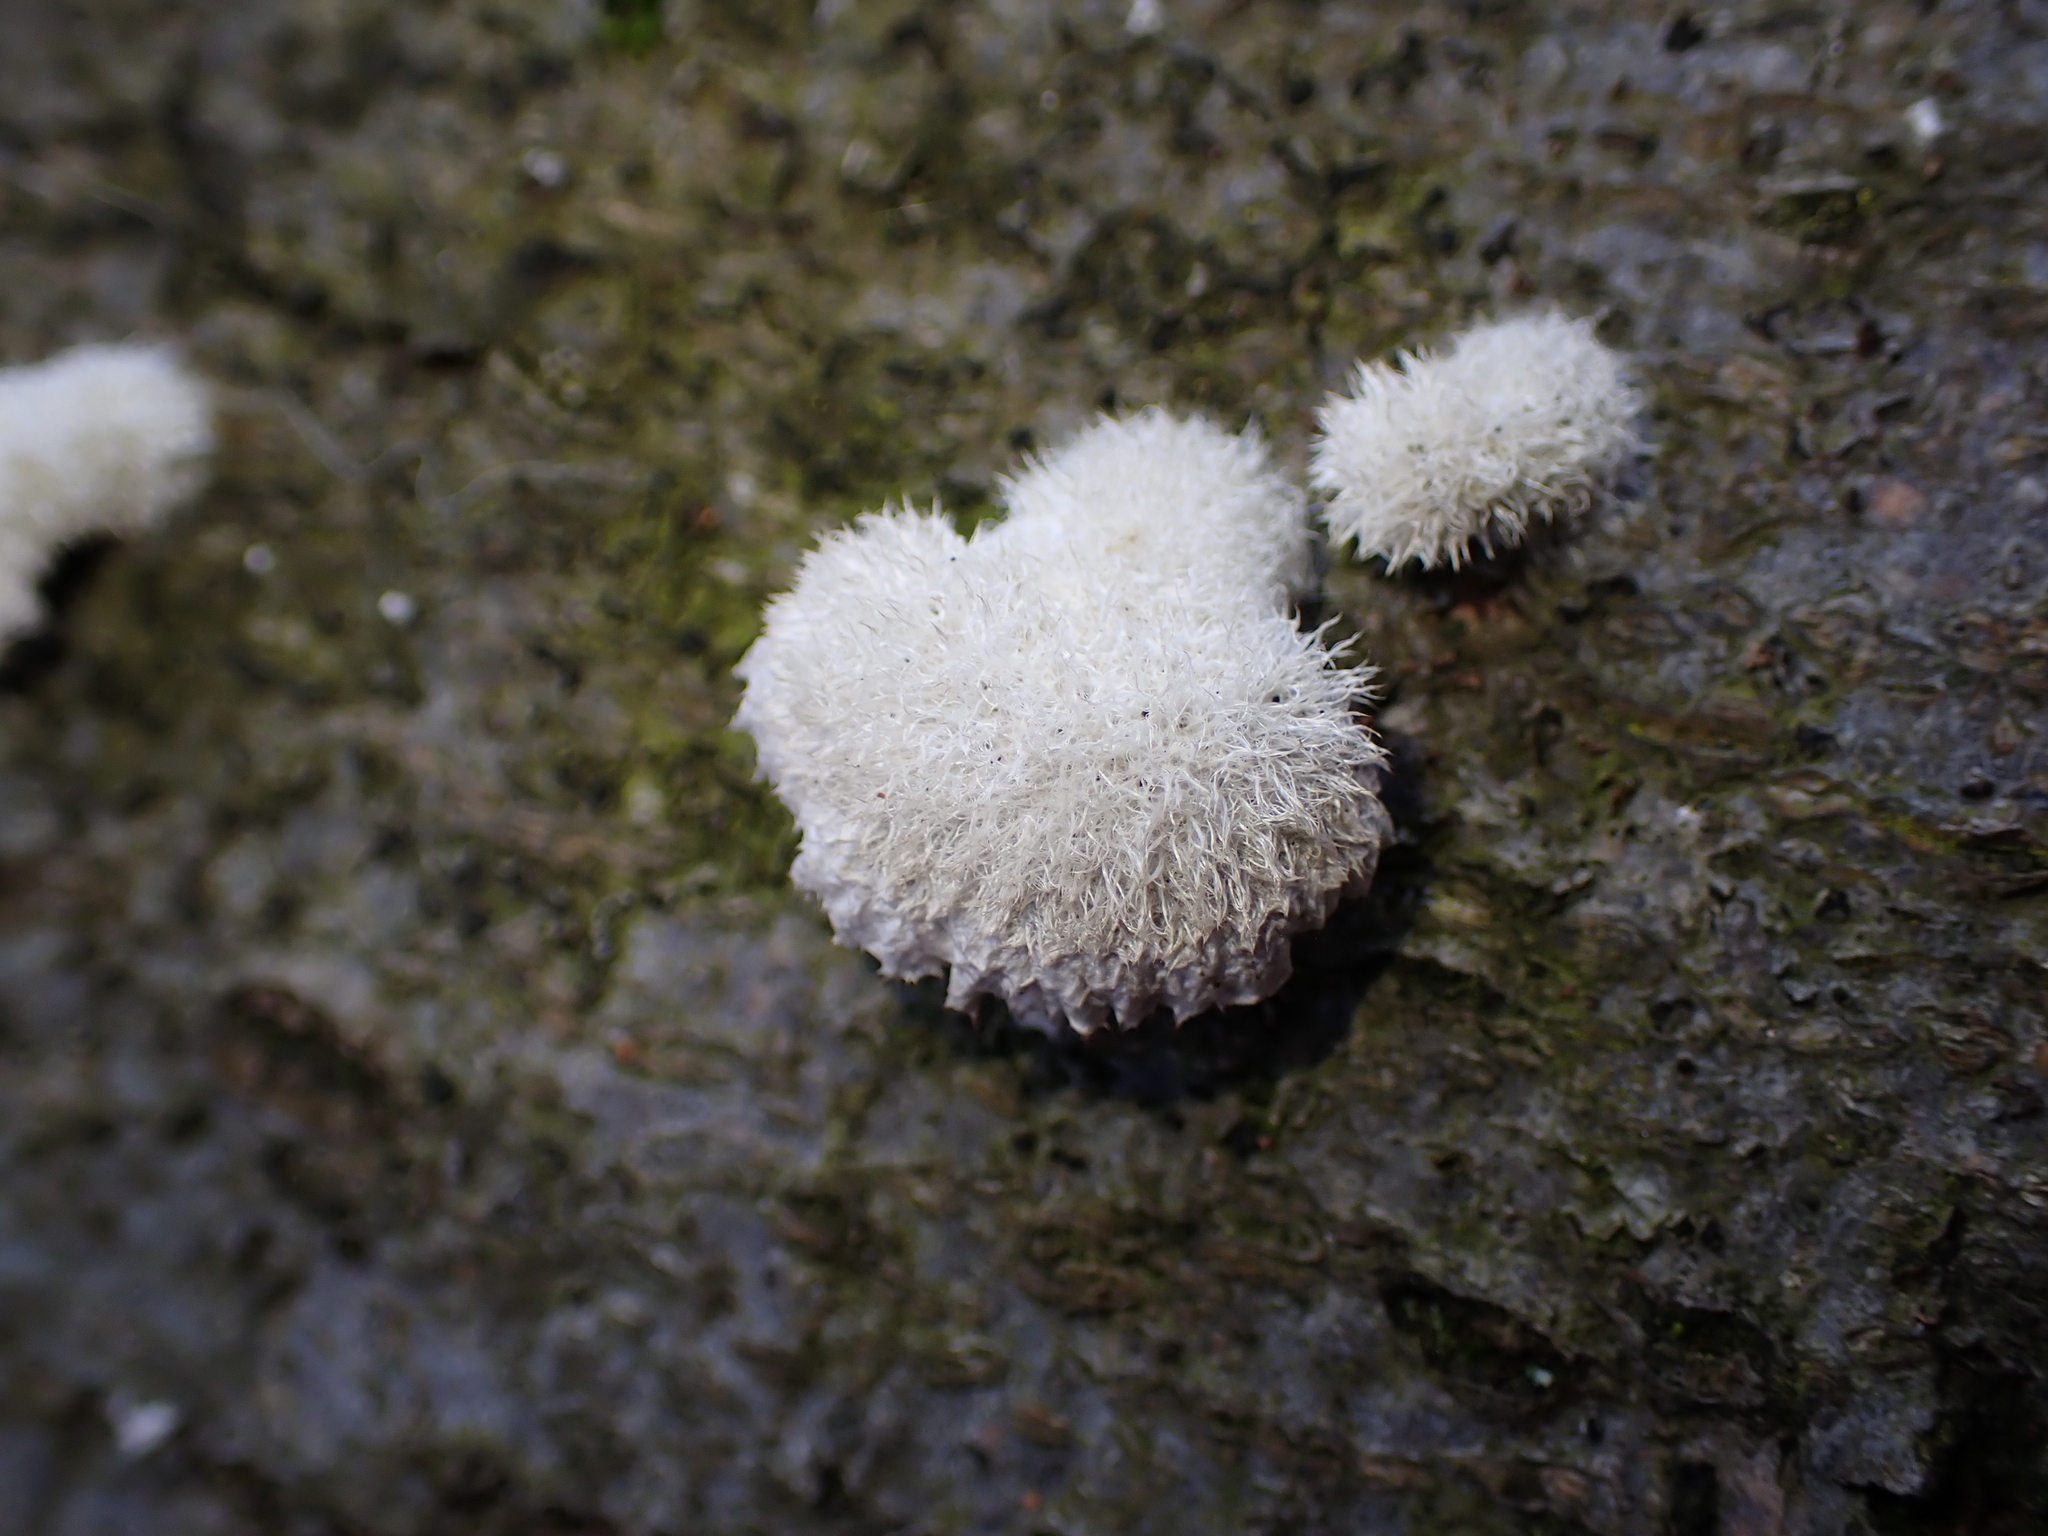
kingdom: Fungi
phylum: Basidiomycota
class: Agaricomycetes
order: Agaricales
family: Schizophyllaceae
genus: Schizophyllum
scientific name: Schizophyllum commune
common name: Common porecrust
